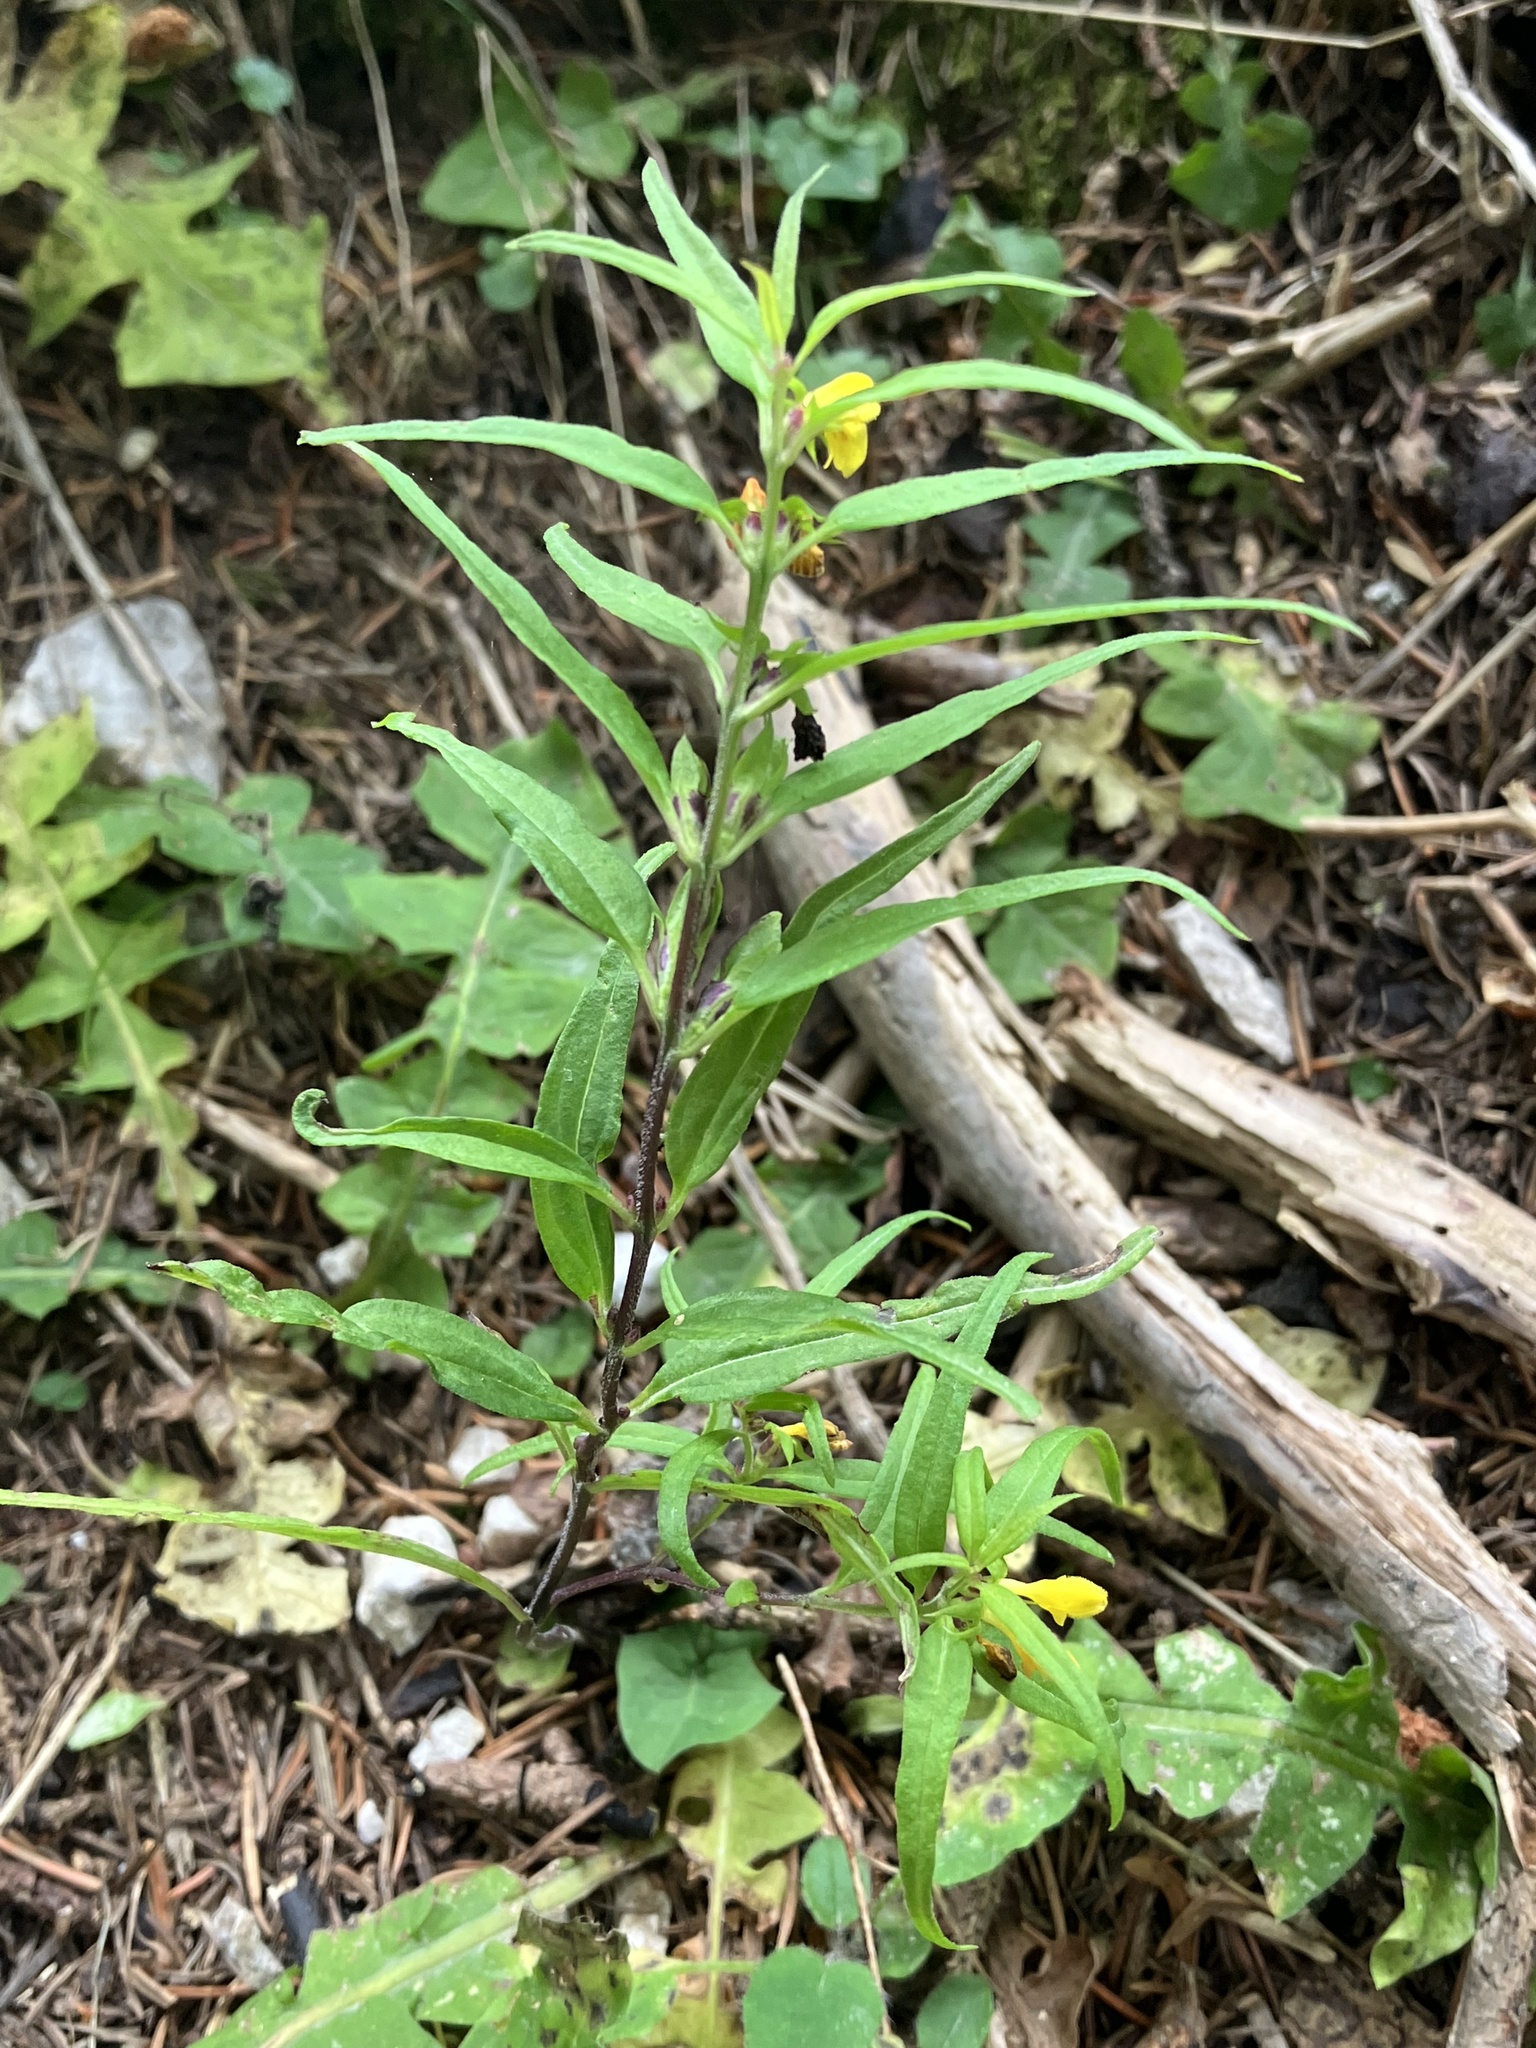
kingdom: Plantae
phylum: Tracheophyta
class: Magnoliopsida
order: Lamiales
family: Orobanchaceae
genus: Melampyrum
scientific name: Melampyrum sylvaticum
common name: Small cow-wheat
